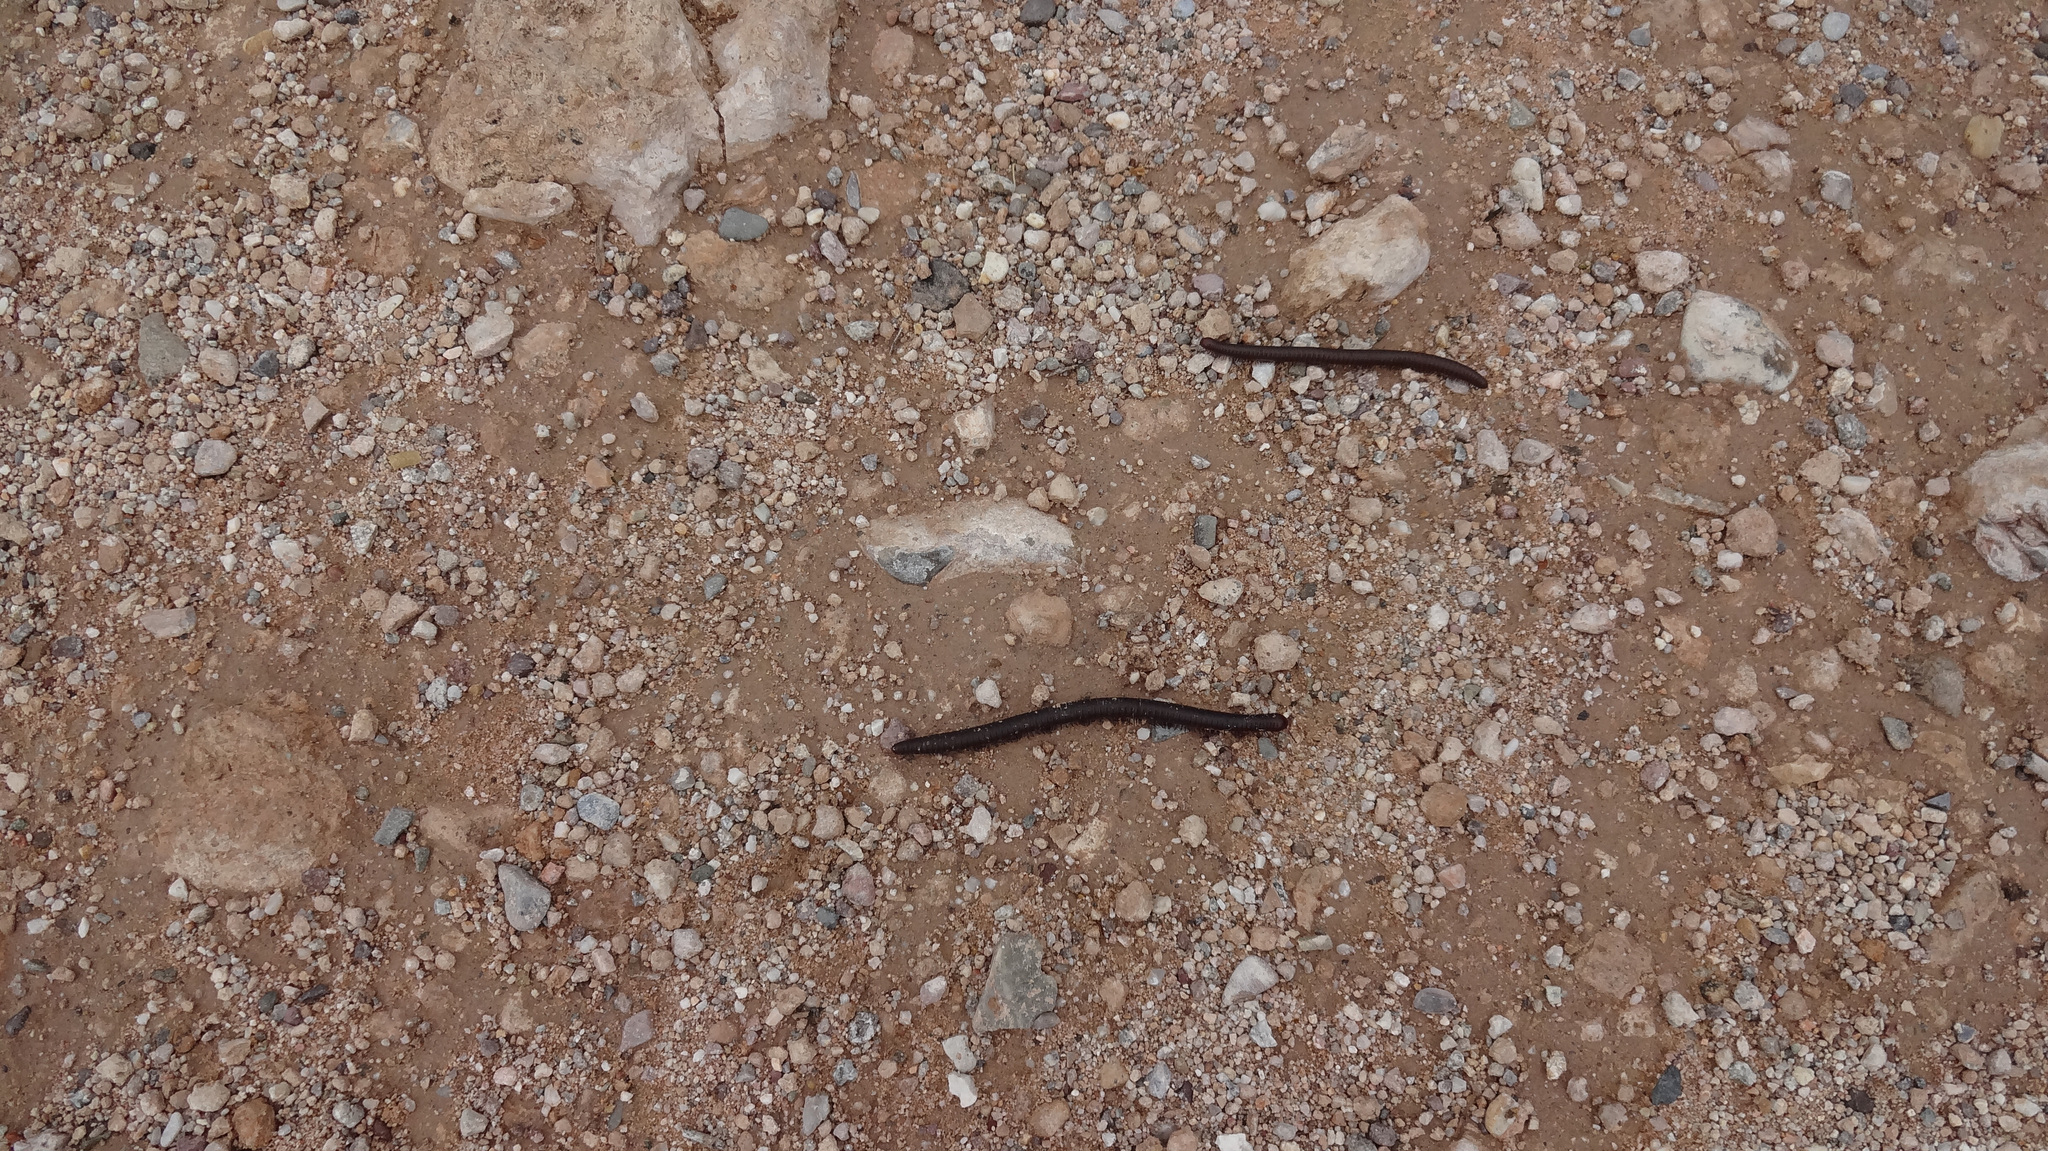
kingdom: Animalia
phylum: Arthropoda
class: Diplopoda
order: Spirostreptida
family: Spirostreptidae
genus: Orthoporus
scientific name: Orthoporus ornatus
